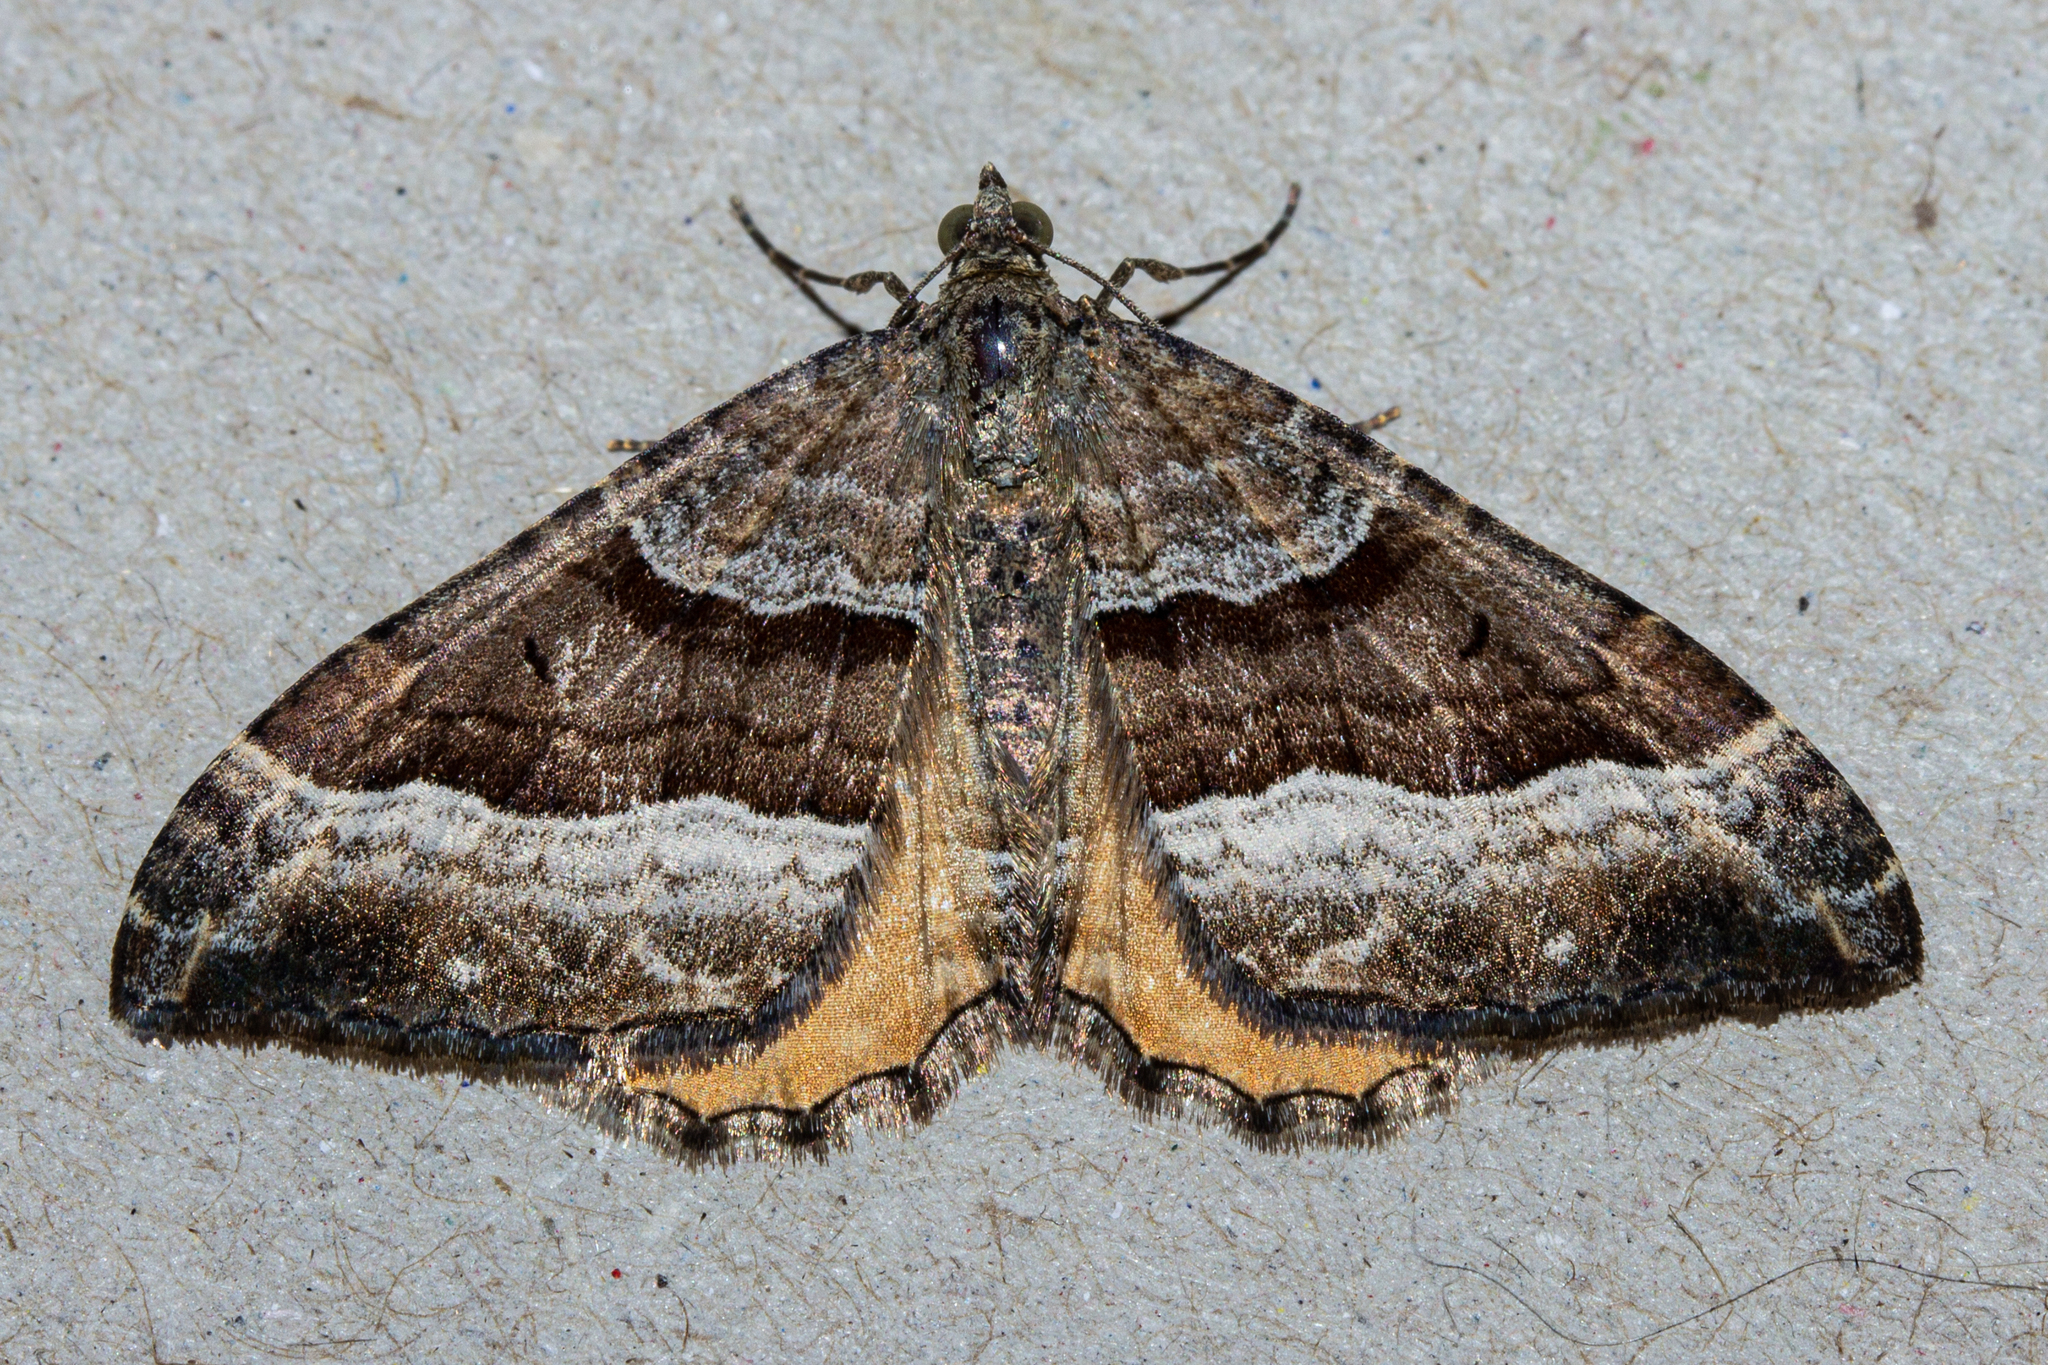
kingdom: Animalia
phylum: Arthropoda
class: Insecta
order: Lepidoptera
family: Geometridae
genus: Hydriomena
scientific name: Hydriomena deltoidata
